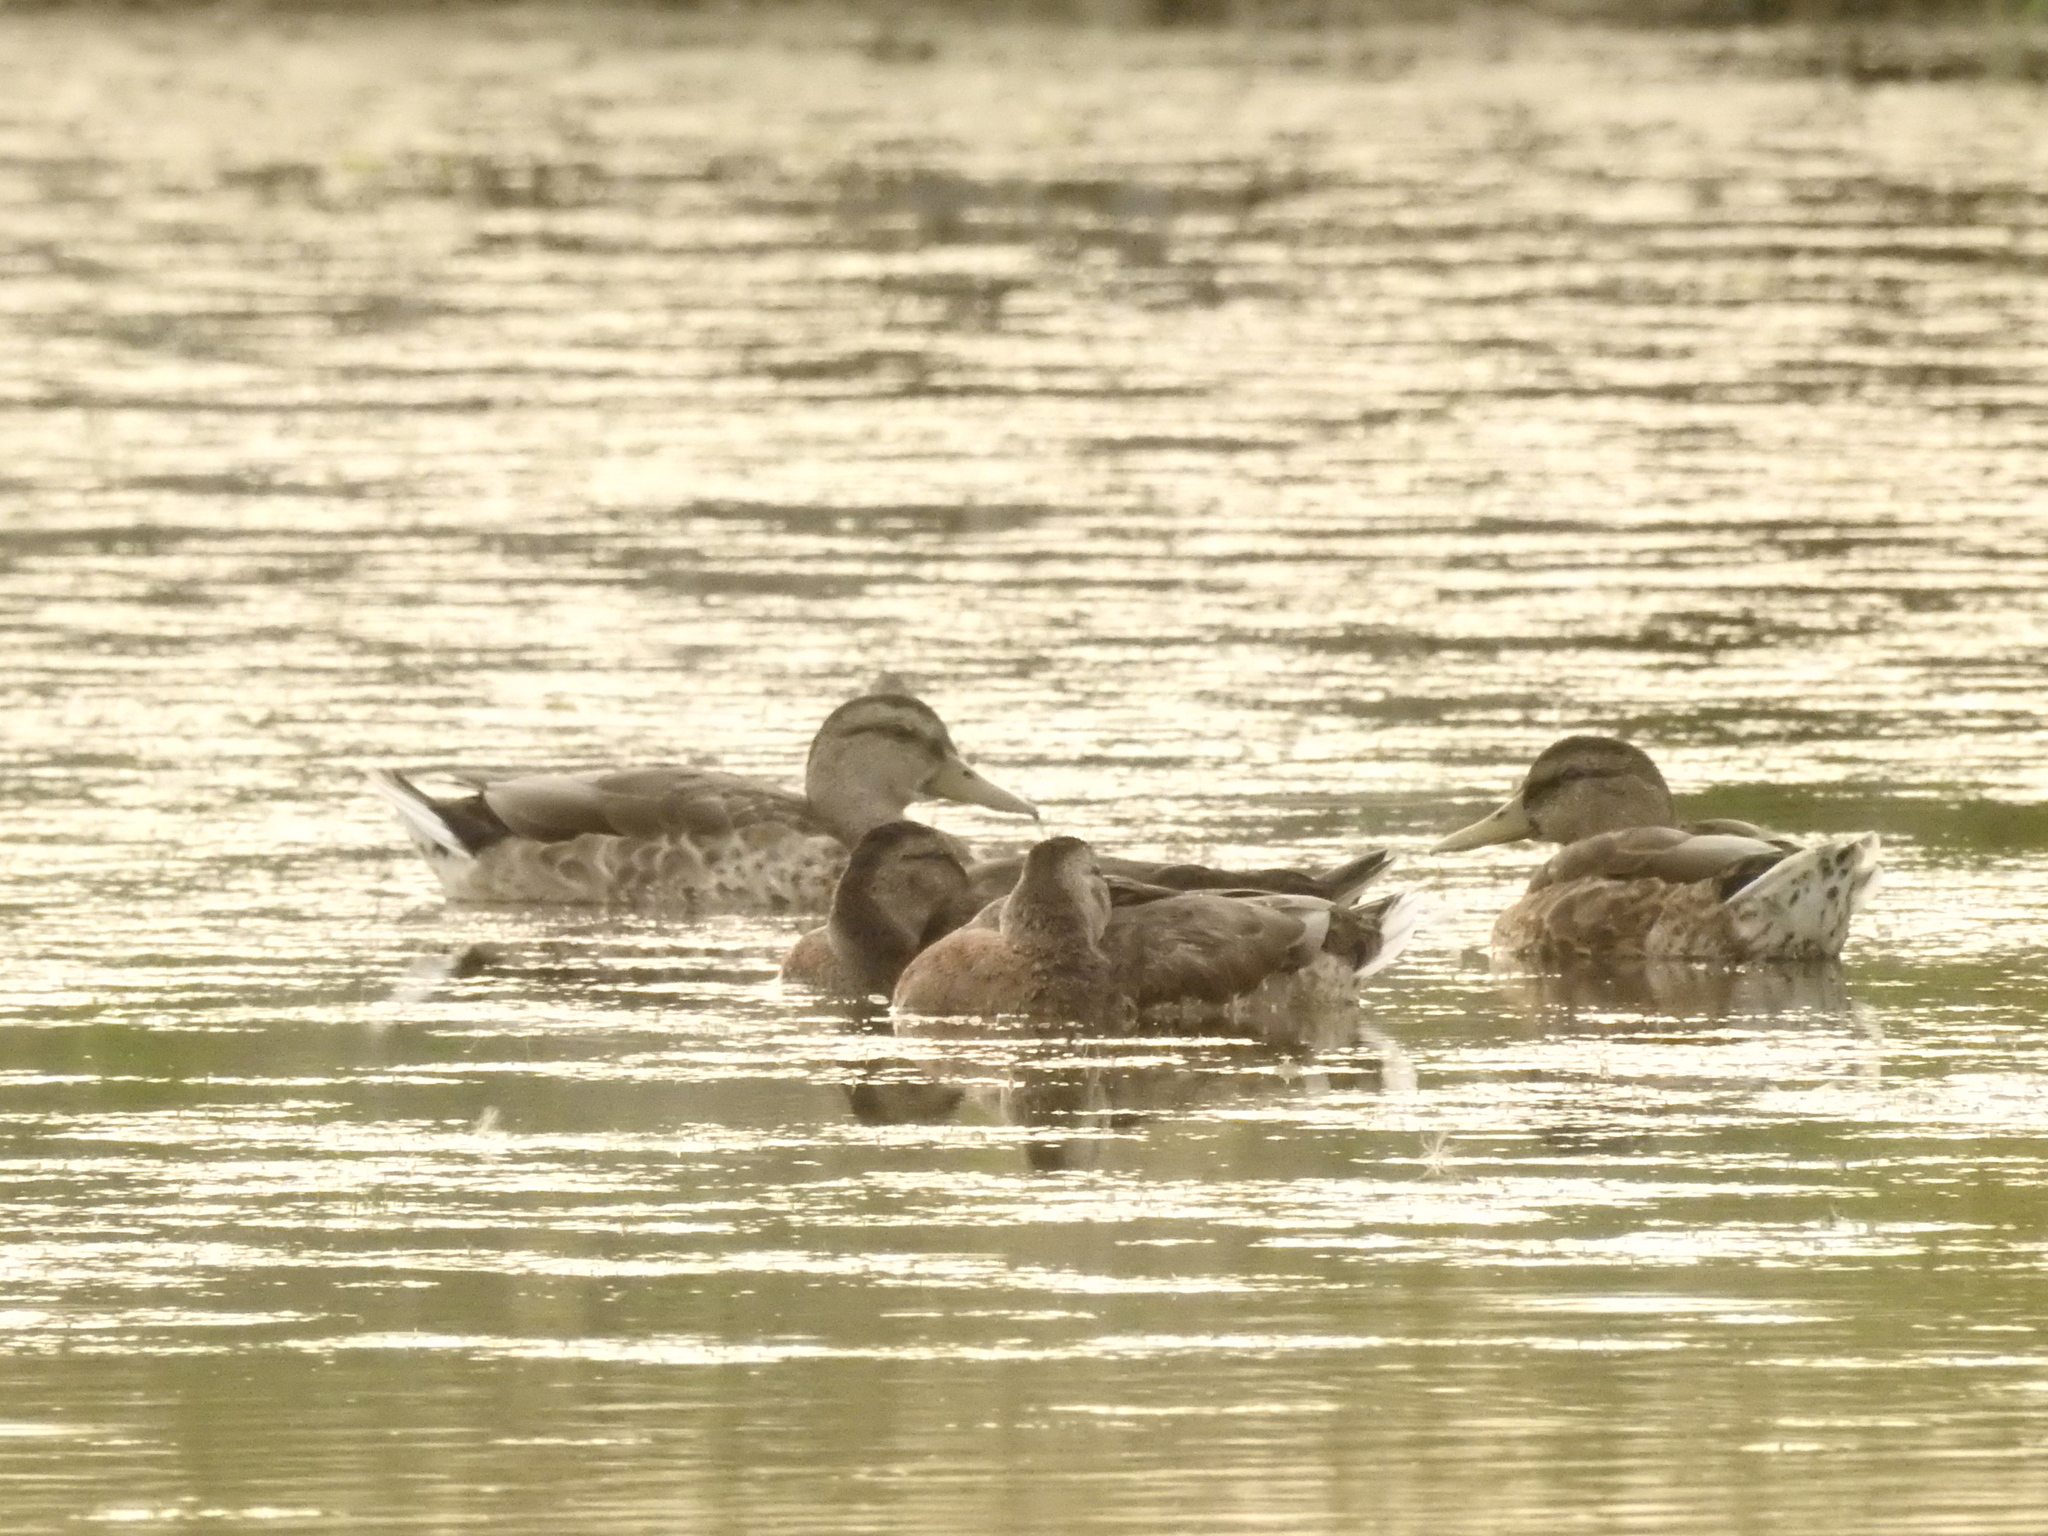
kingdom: Animalia
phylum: Chordata
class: Aves
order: Anseriformes
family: Anatidae
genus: Anas
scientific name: Anas platyrhynchos
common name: Mallard
